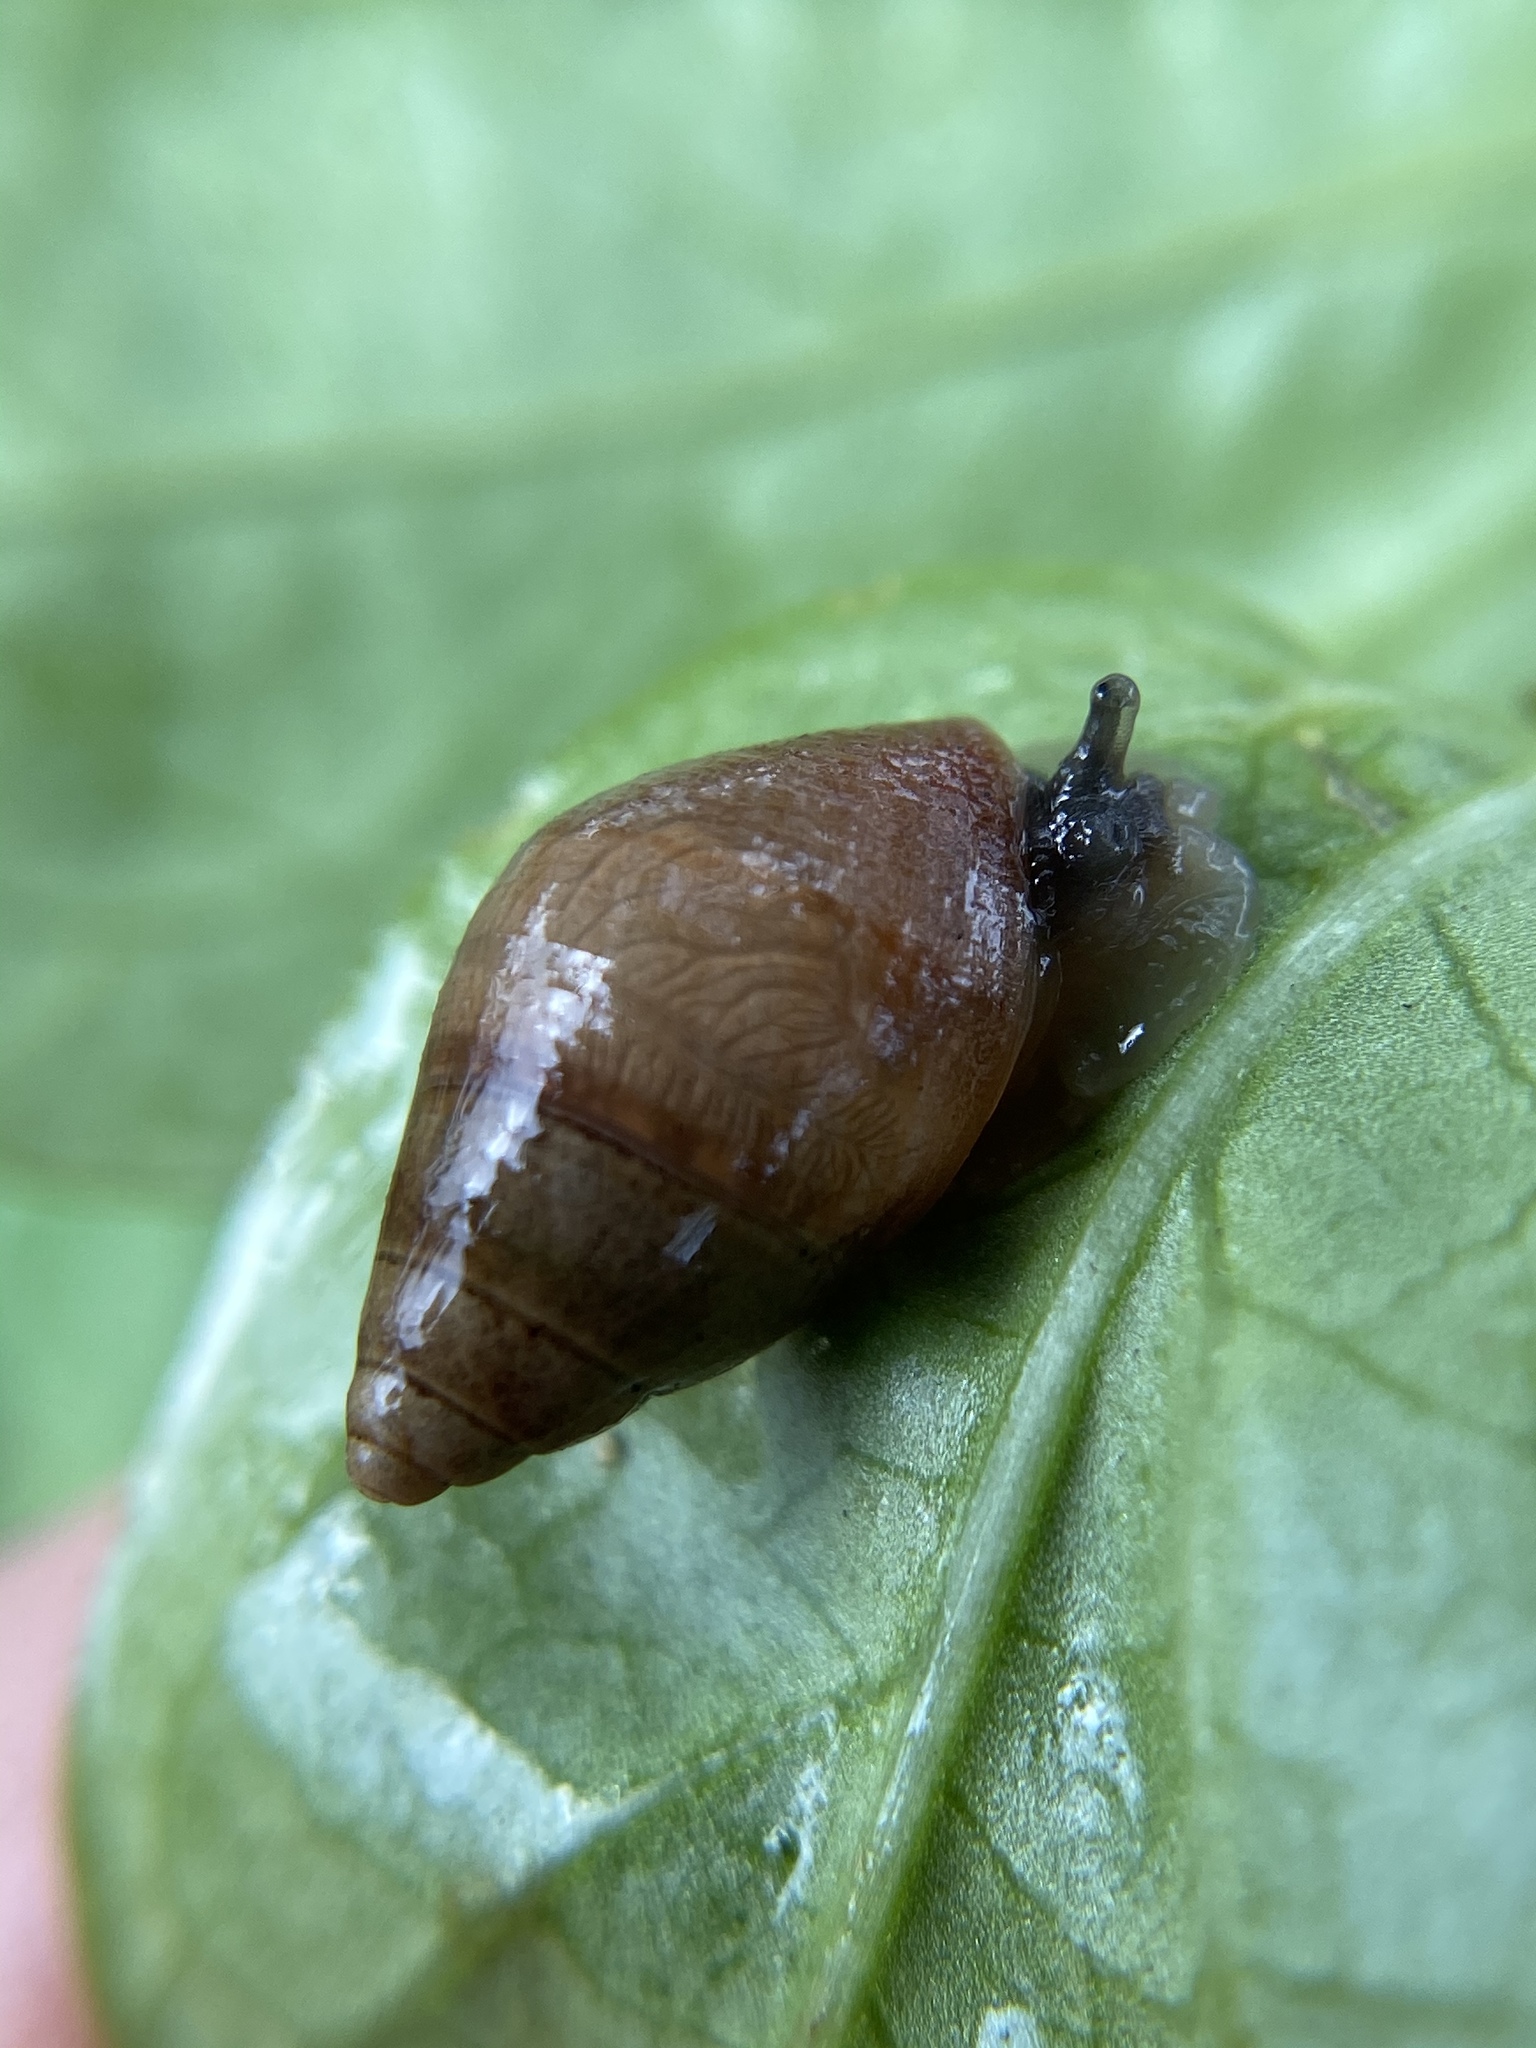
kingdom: Animalia
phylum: Mollusca
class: Gastropoda
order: Stylommatophora
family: Bulimulidae
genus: Bulimulus
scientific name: Bulimulus guadalupensis
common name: West indian bulimulus
